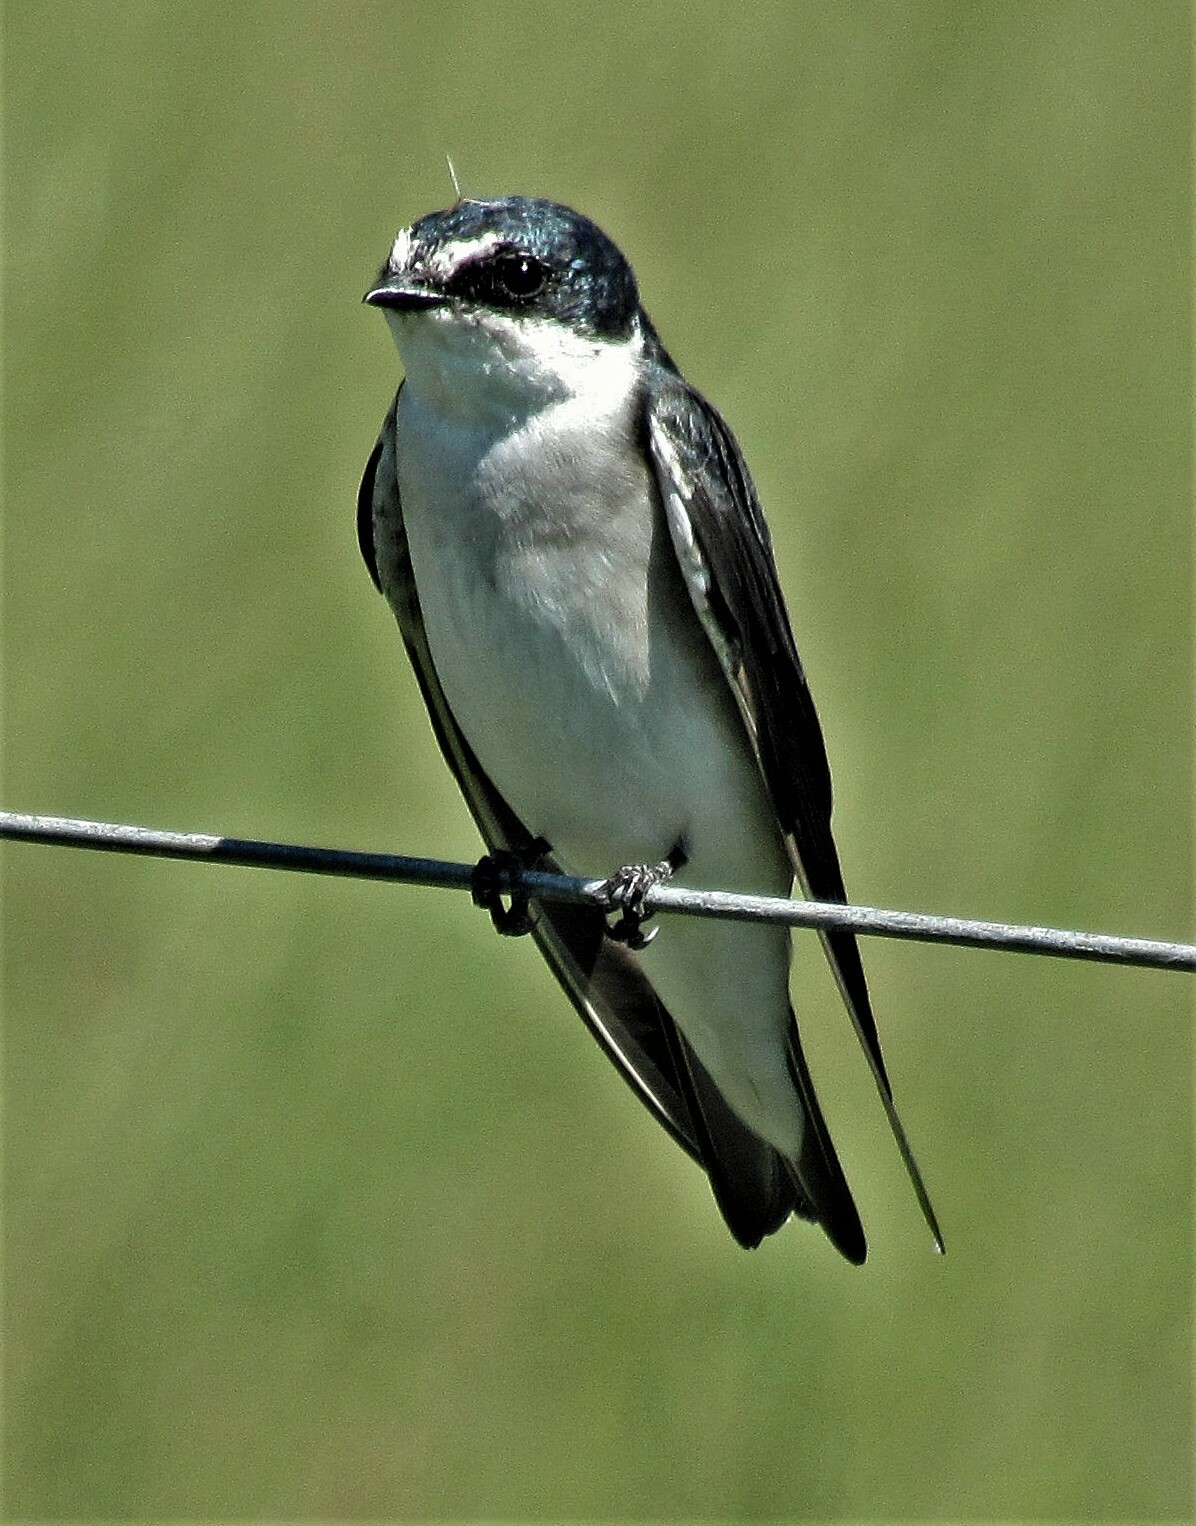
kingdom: Animalia
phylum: Chordata
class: Aves
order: Passeriformes
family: Hirundinidae
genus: Tachycineta
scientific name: Tachycineta leucorrhoa
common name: White-rumped swallow
